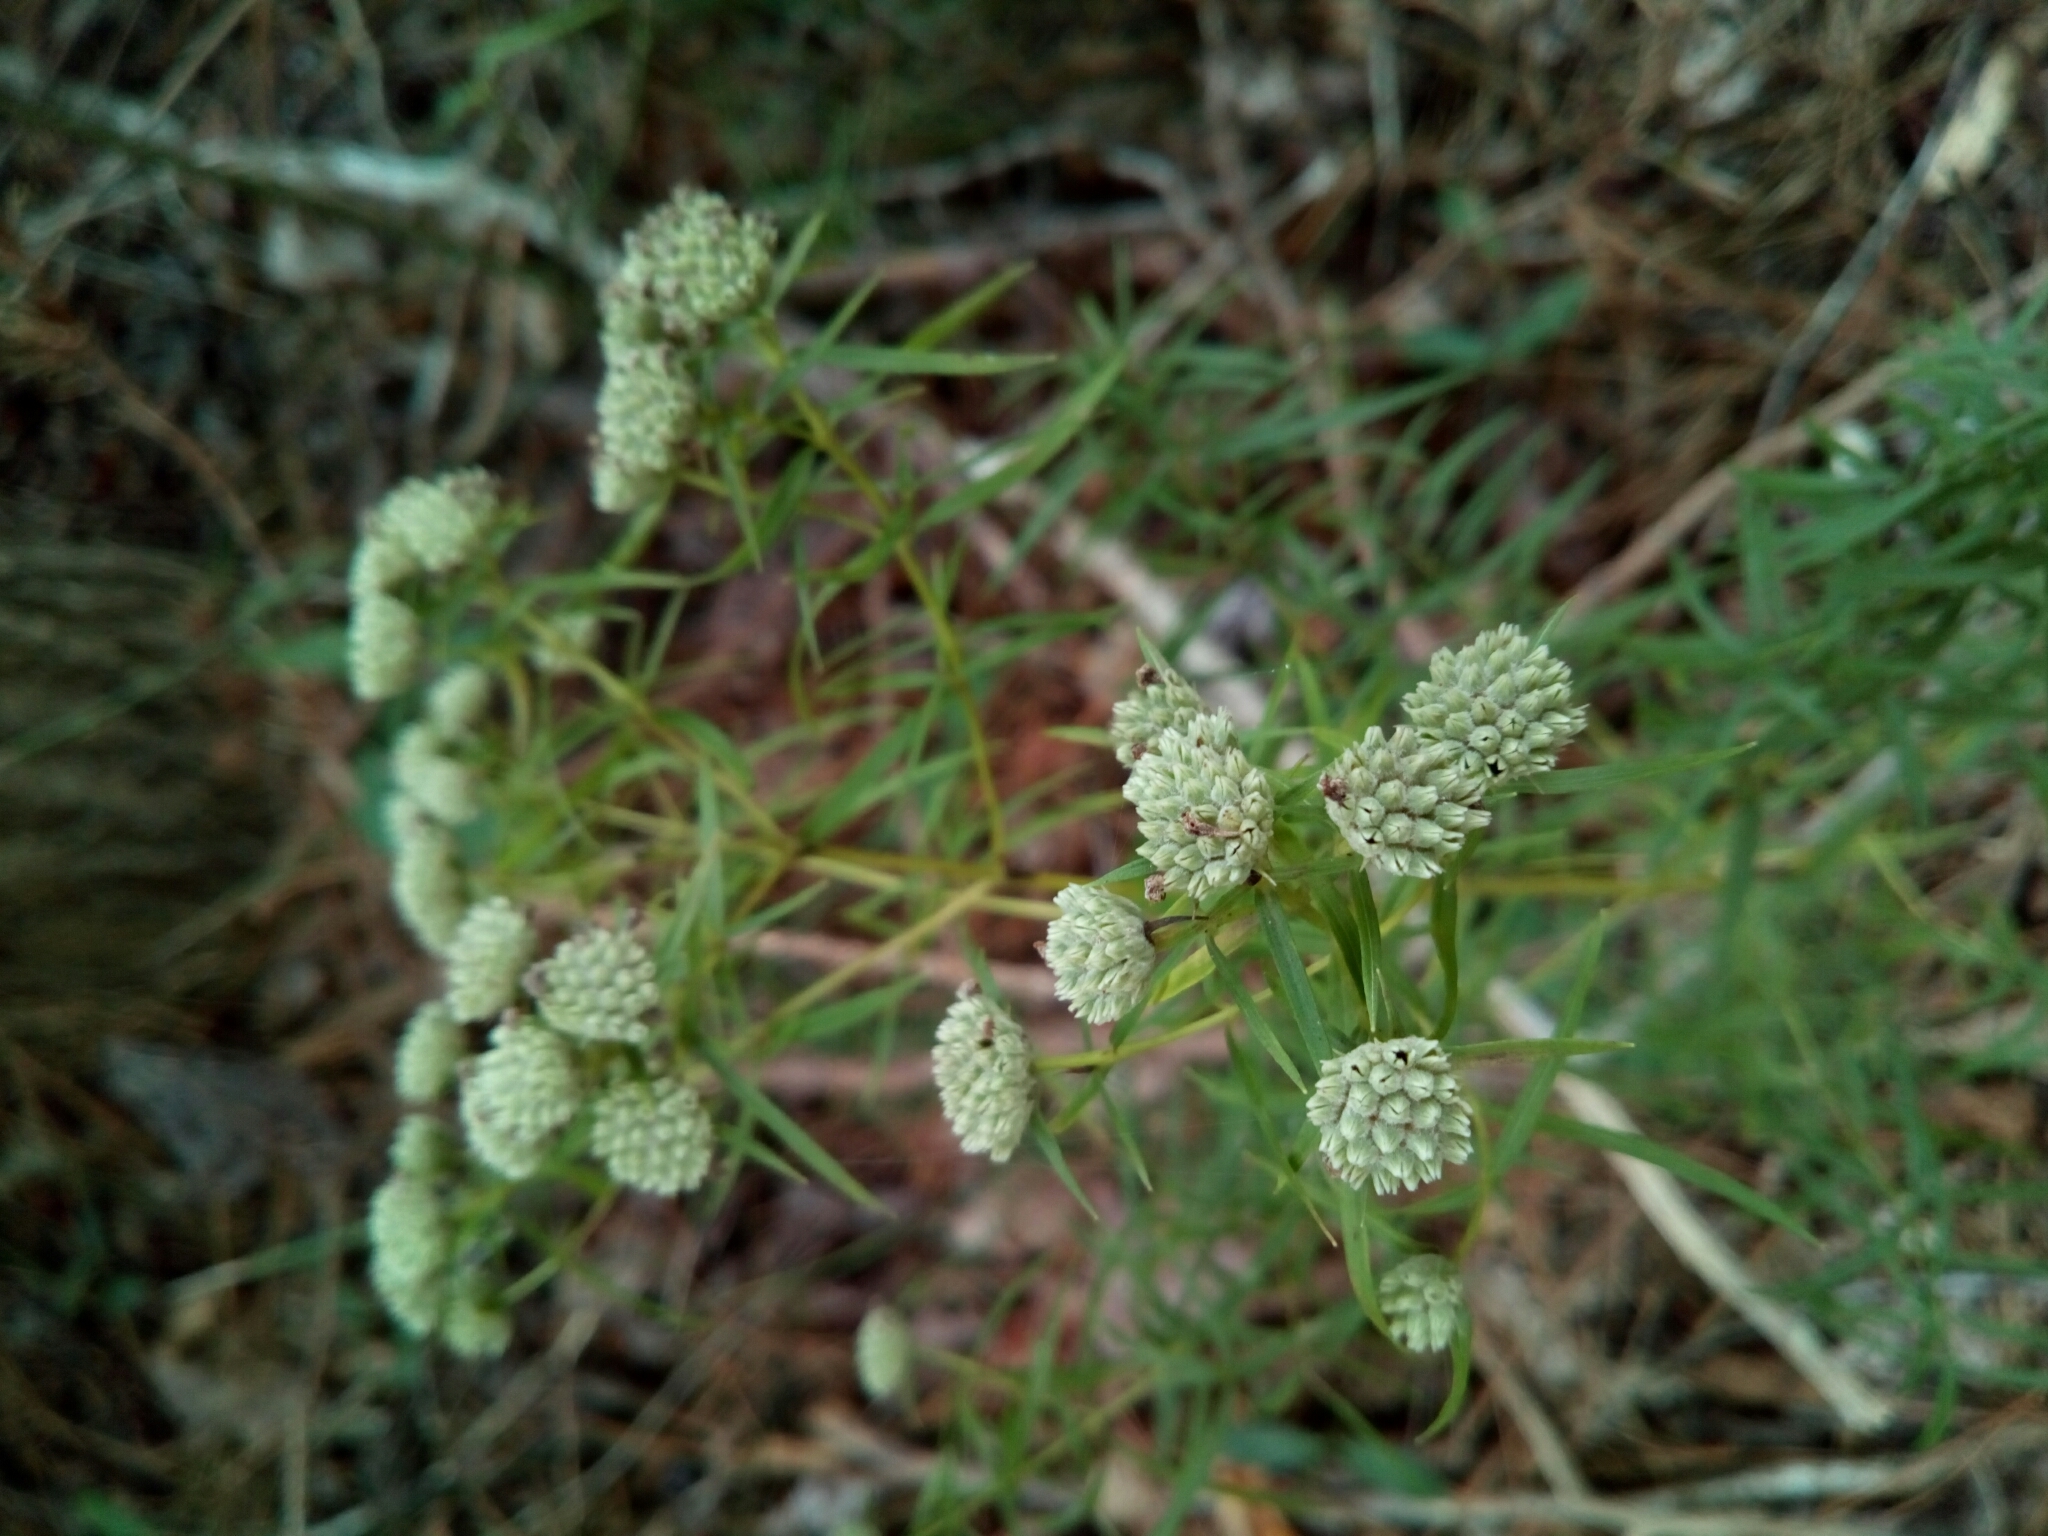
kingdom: Plantae
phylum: Tracheophyta
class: Magnoliopsida
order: Lamiales
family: Lamiaceae
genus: Pycnanthemum
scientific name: Pycnanthemum tenuifolium
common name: Narrow-leaf mountain-mint
